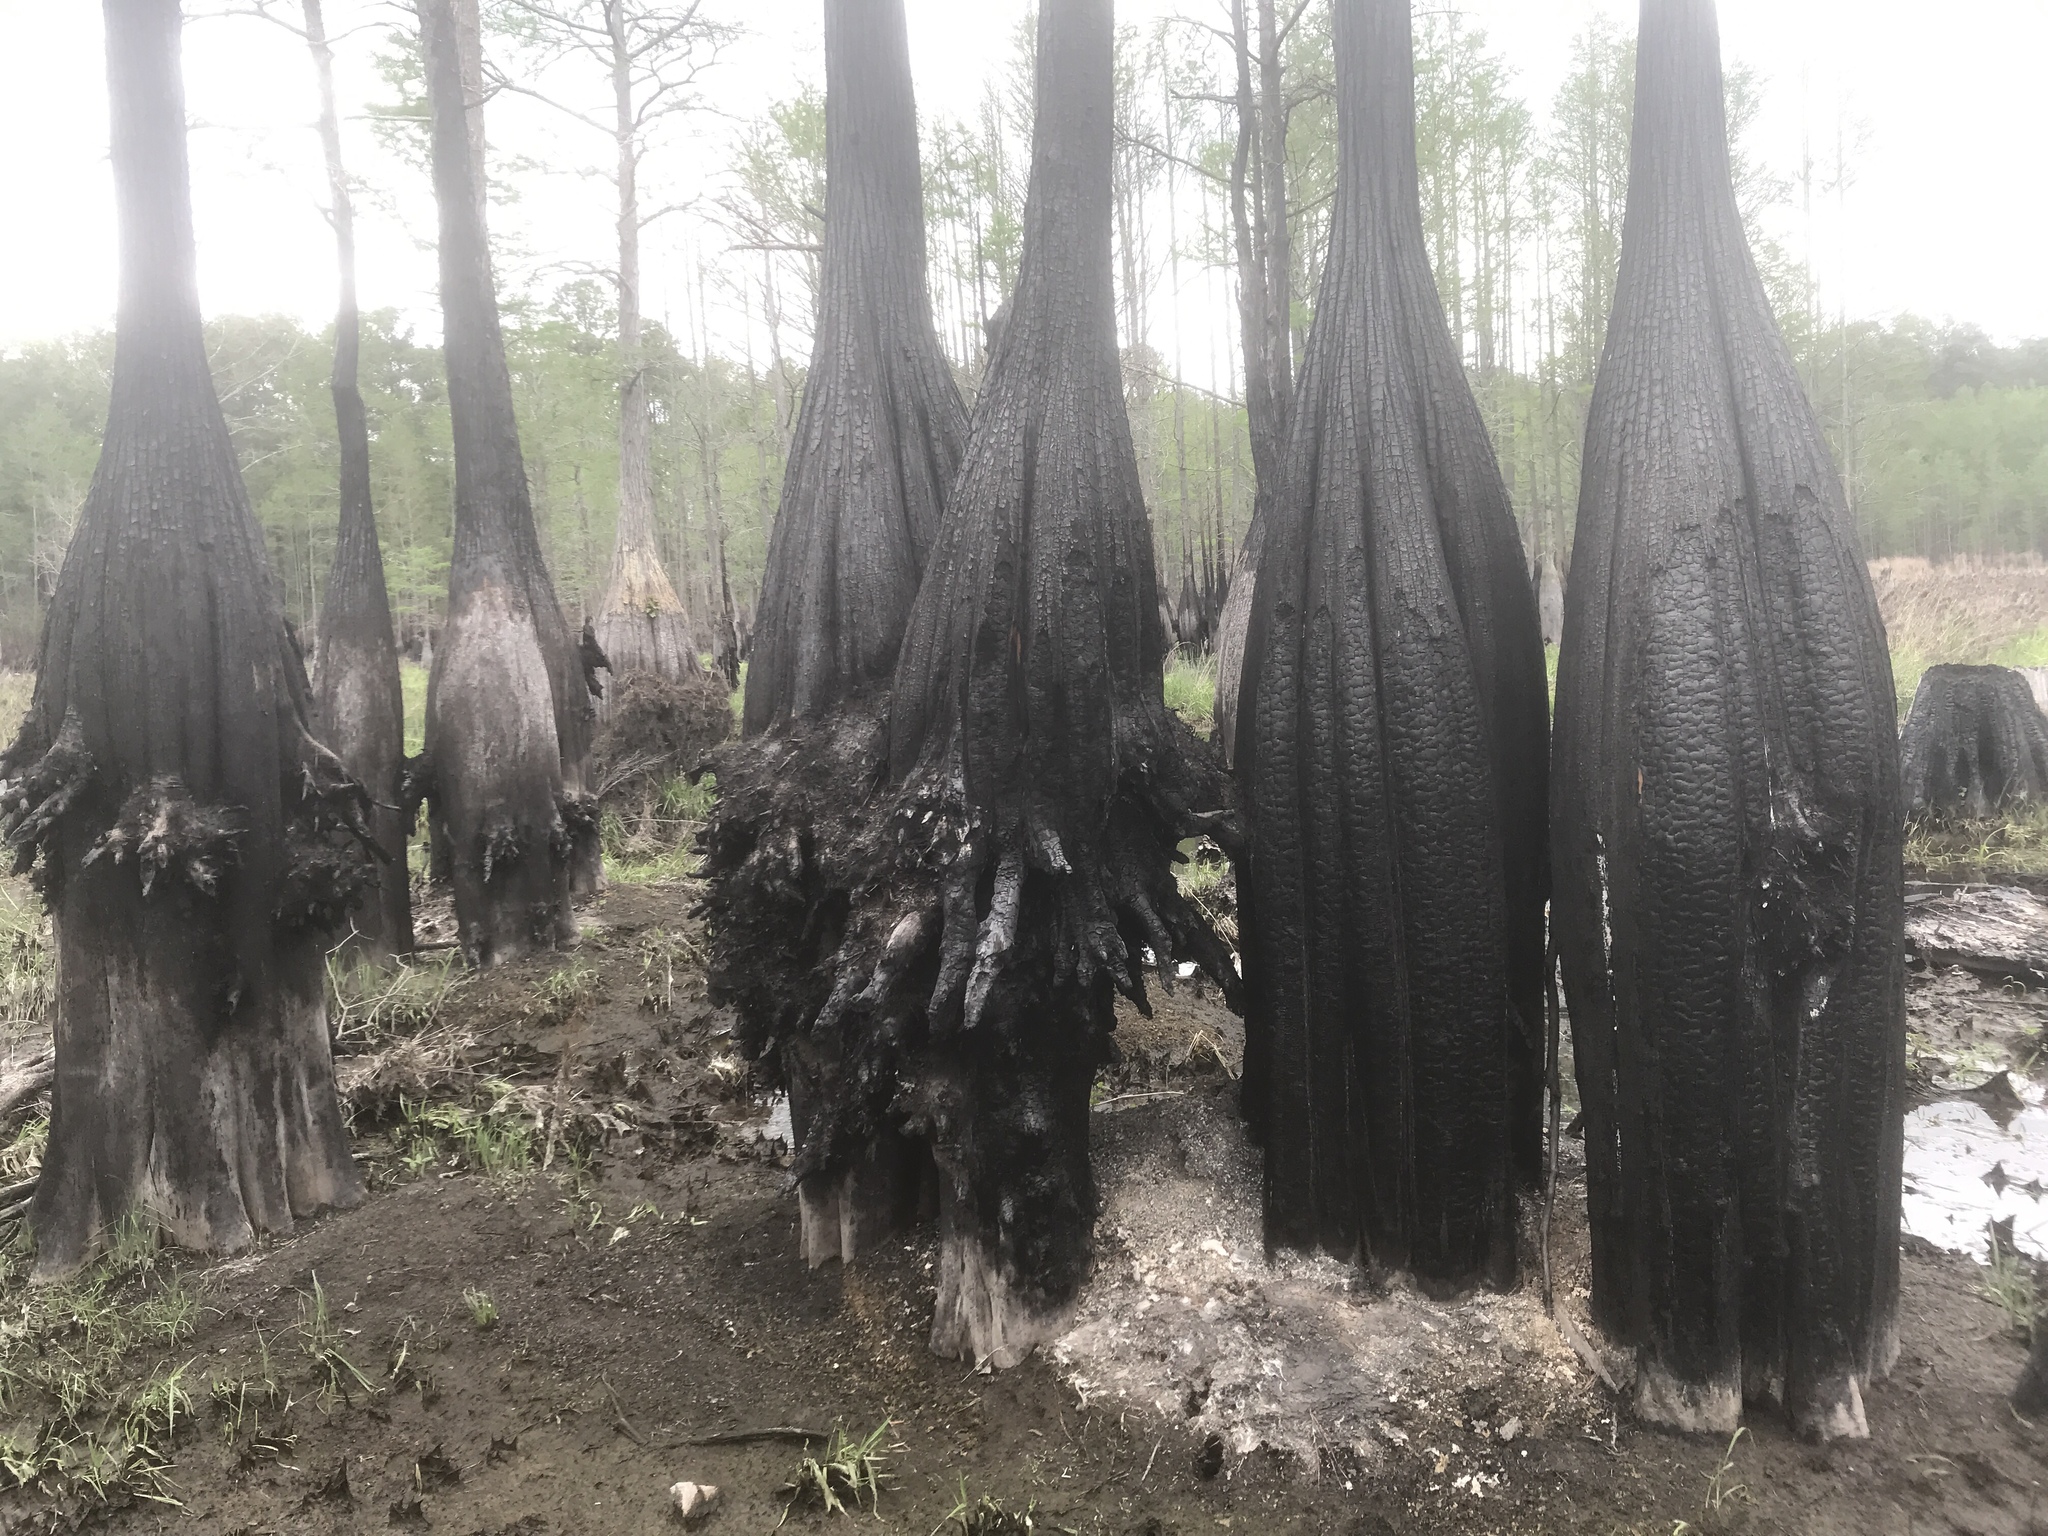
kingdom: Plantae
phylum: Tracheophyta
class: Pinopsida
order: Pinales
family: Cupressaceae
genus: Taxodium
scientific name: Taxodium distichum
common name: Bald cypress
